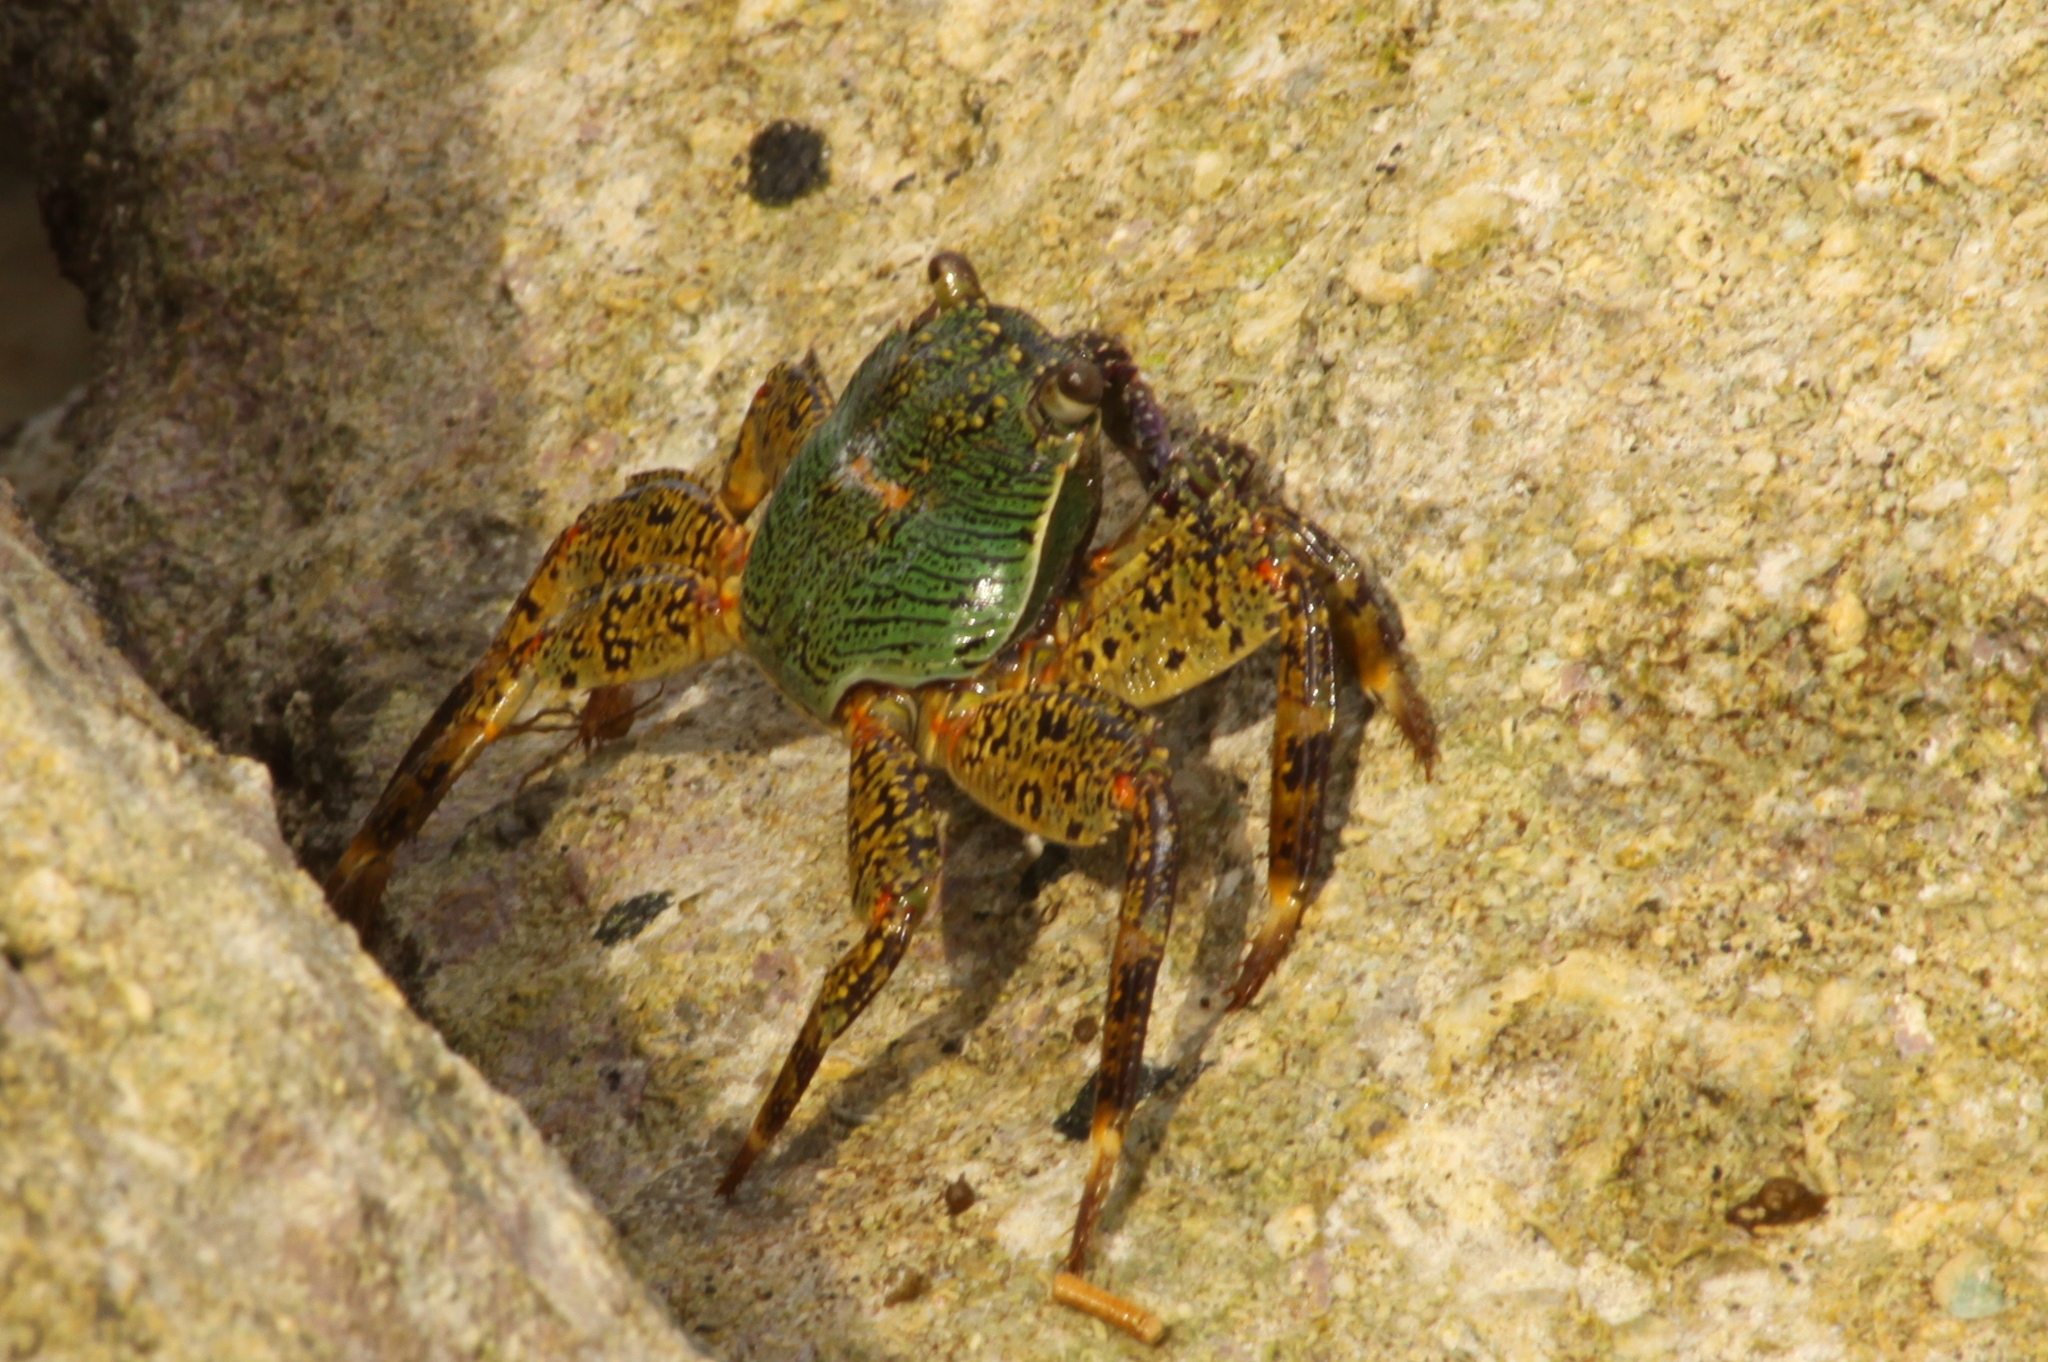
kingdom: Animalia
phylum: Arthropoda
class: Malacostraca
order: Decapoda
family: Grapsidae
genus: Grapsus
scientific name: Grapsus albolineatus
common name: Mottled lightfoot crab
